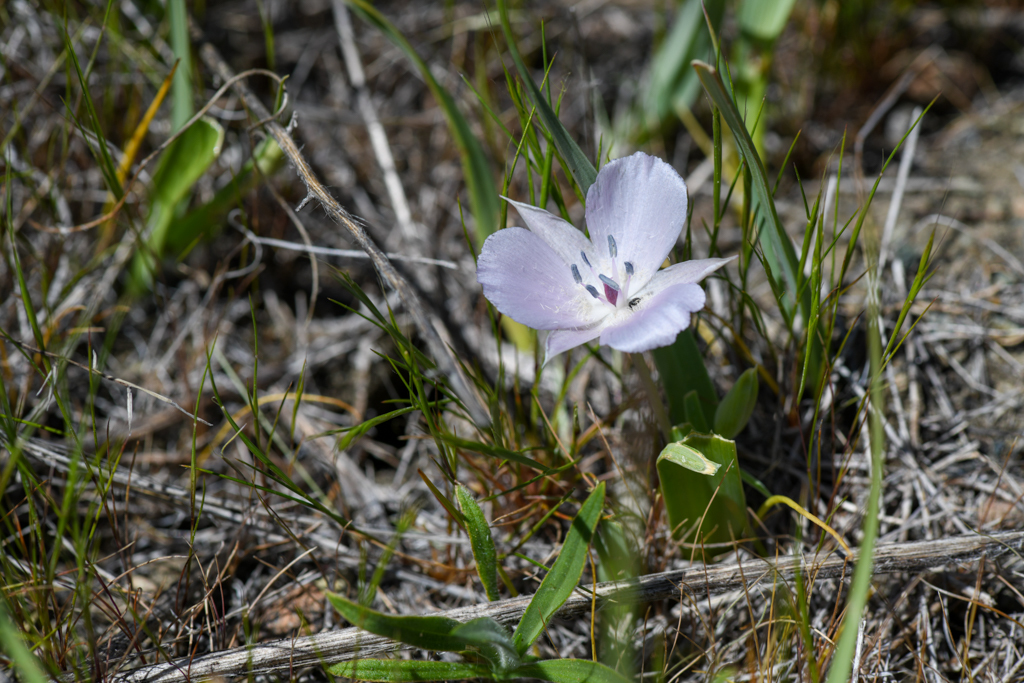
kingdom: Plantae
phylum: Tracheophyta
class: Liliopsida
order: Liliales
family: Liliaceae
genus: Calochortus
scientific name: Calochortus uniflorus
